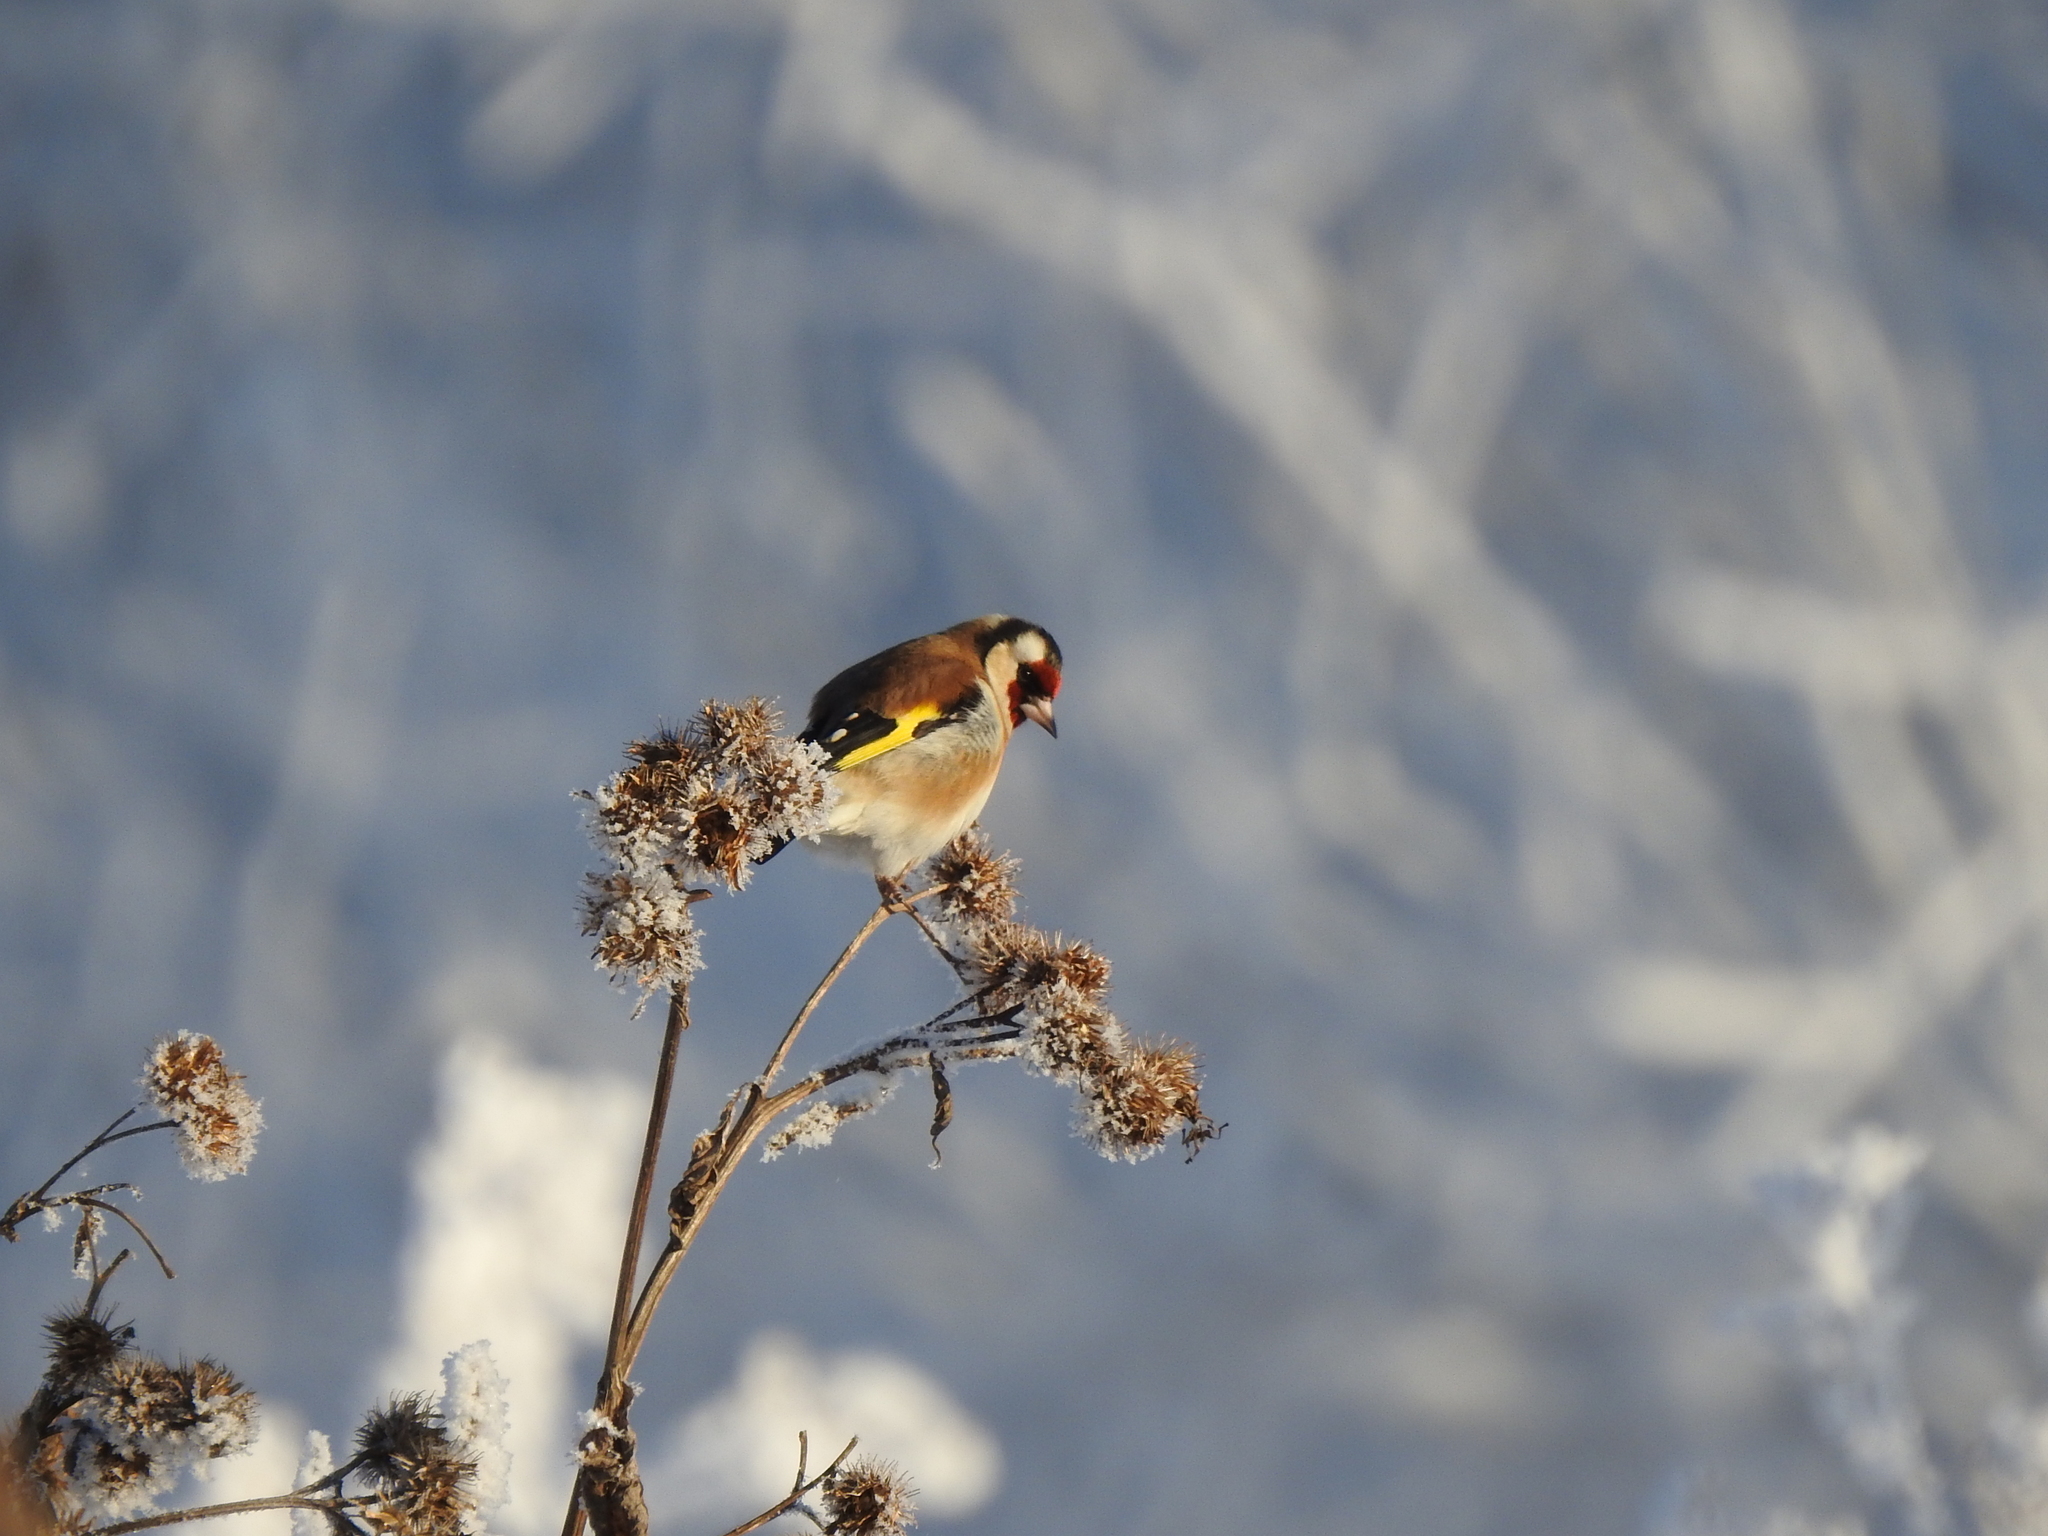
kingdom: Animalia
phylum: Chordata
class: Aves
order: Passeriformes
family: Fringillidae
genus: Carduelis
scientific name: Carduelis carduelis
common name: European goldfinch
